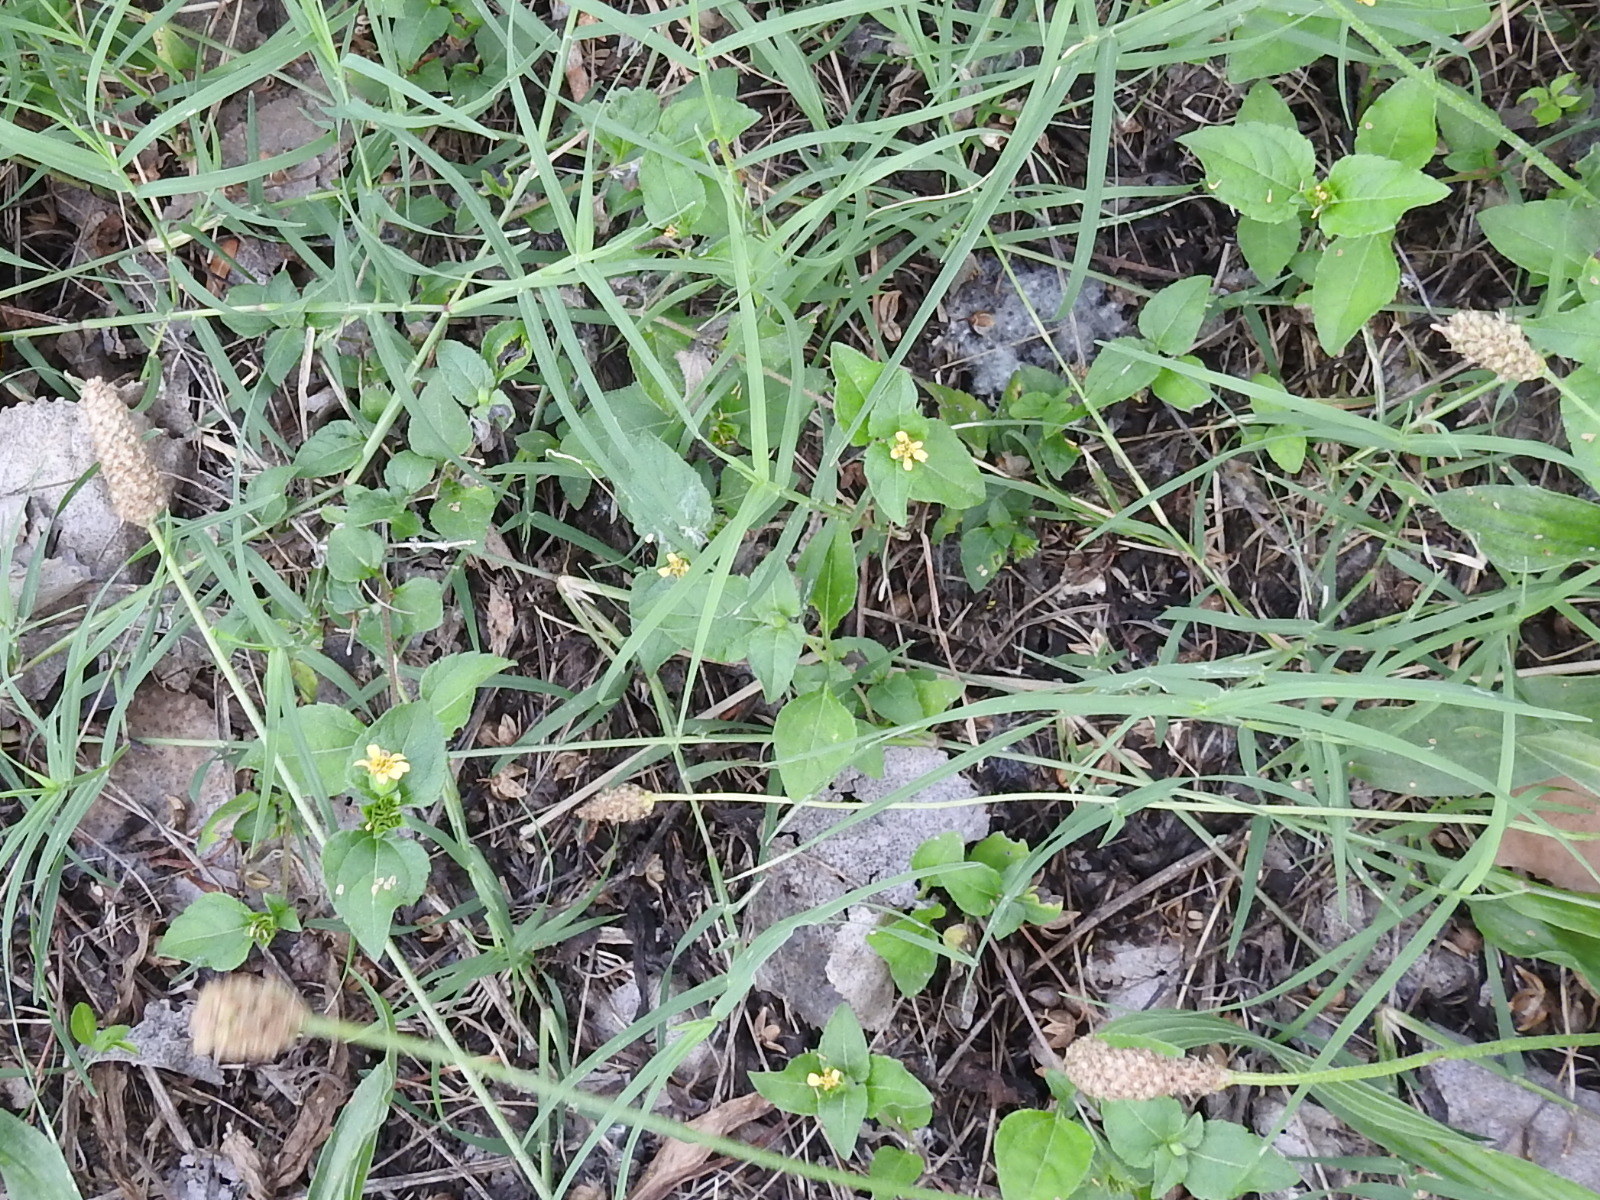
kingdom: Plantae
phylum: Tracheophyta
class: Magnoliopsida
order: Asterales
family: Asteraceae
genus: Calyptocarpus
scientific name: Calyptocarpus vialis
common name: Straggler daisy
